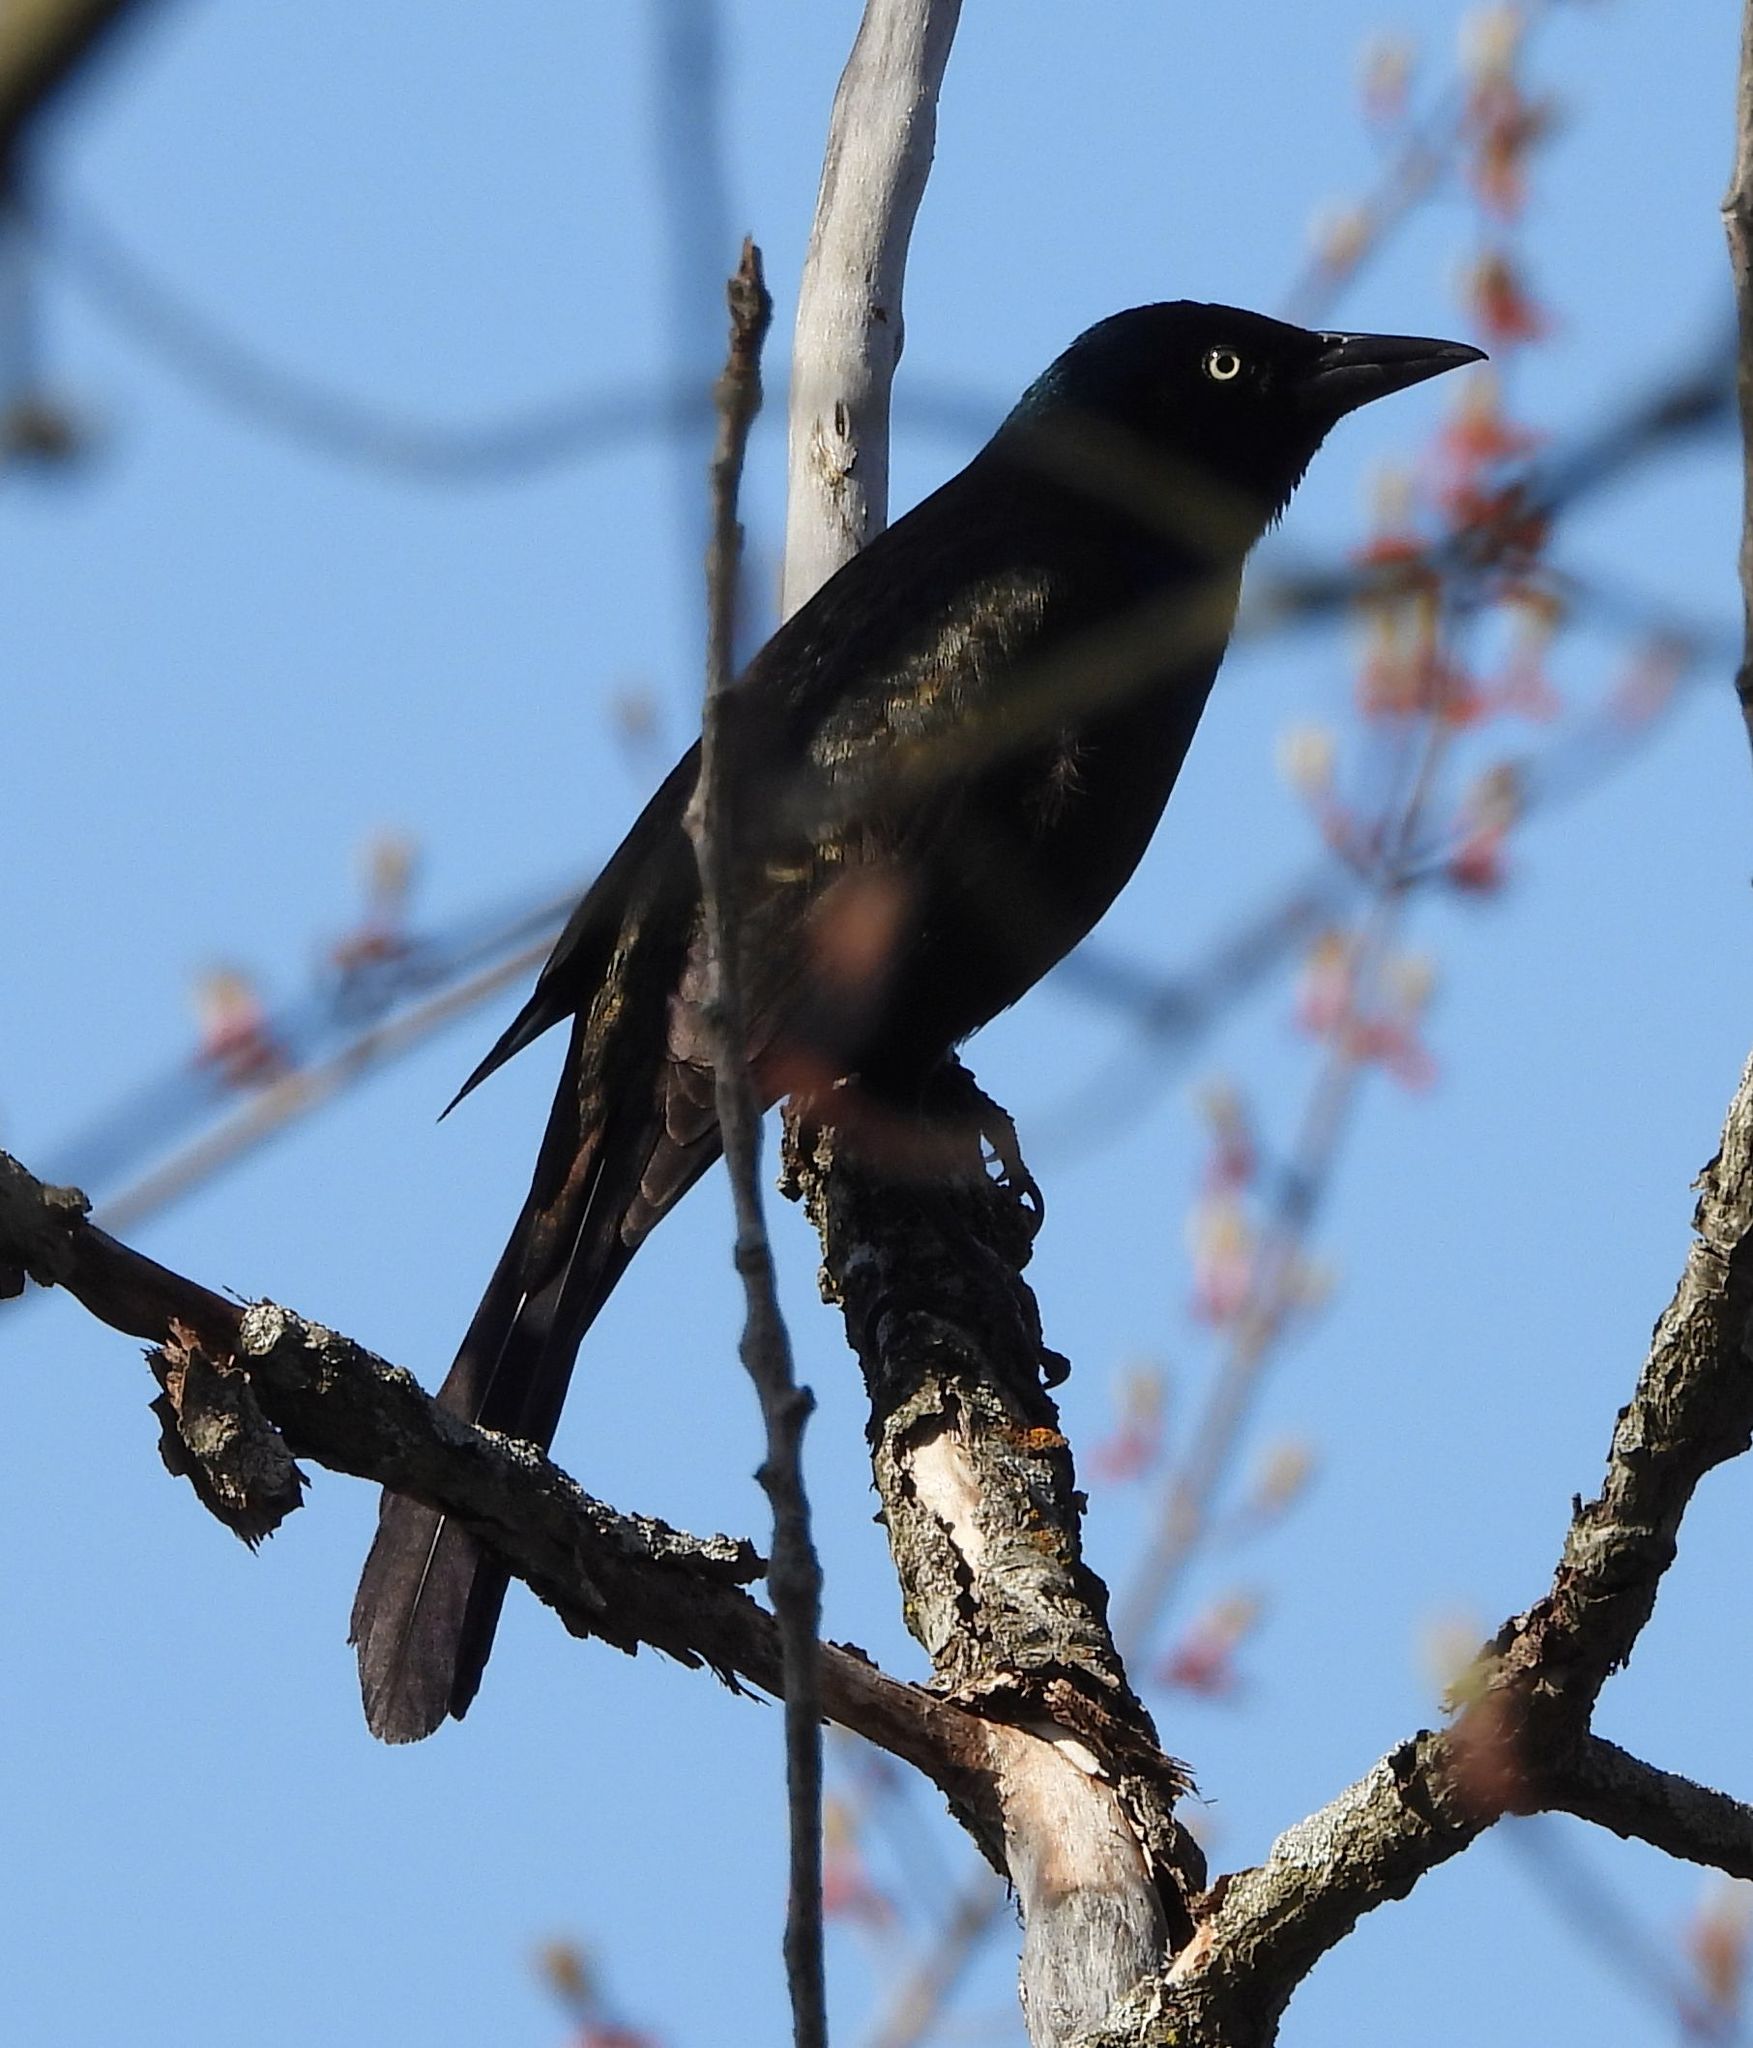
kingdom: Animalia
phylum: Chordata
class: Aves
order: Passeriformes
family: Icteridae
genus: Quiscalus
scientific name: Quiscalus quiscula
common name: Common grackle
